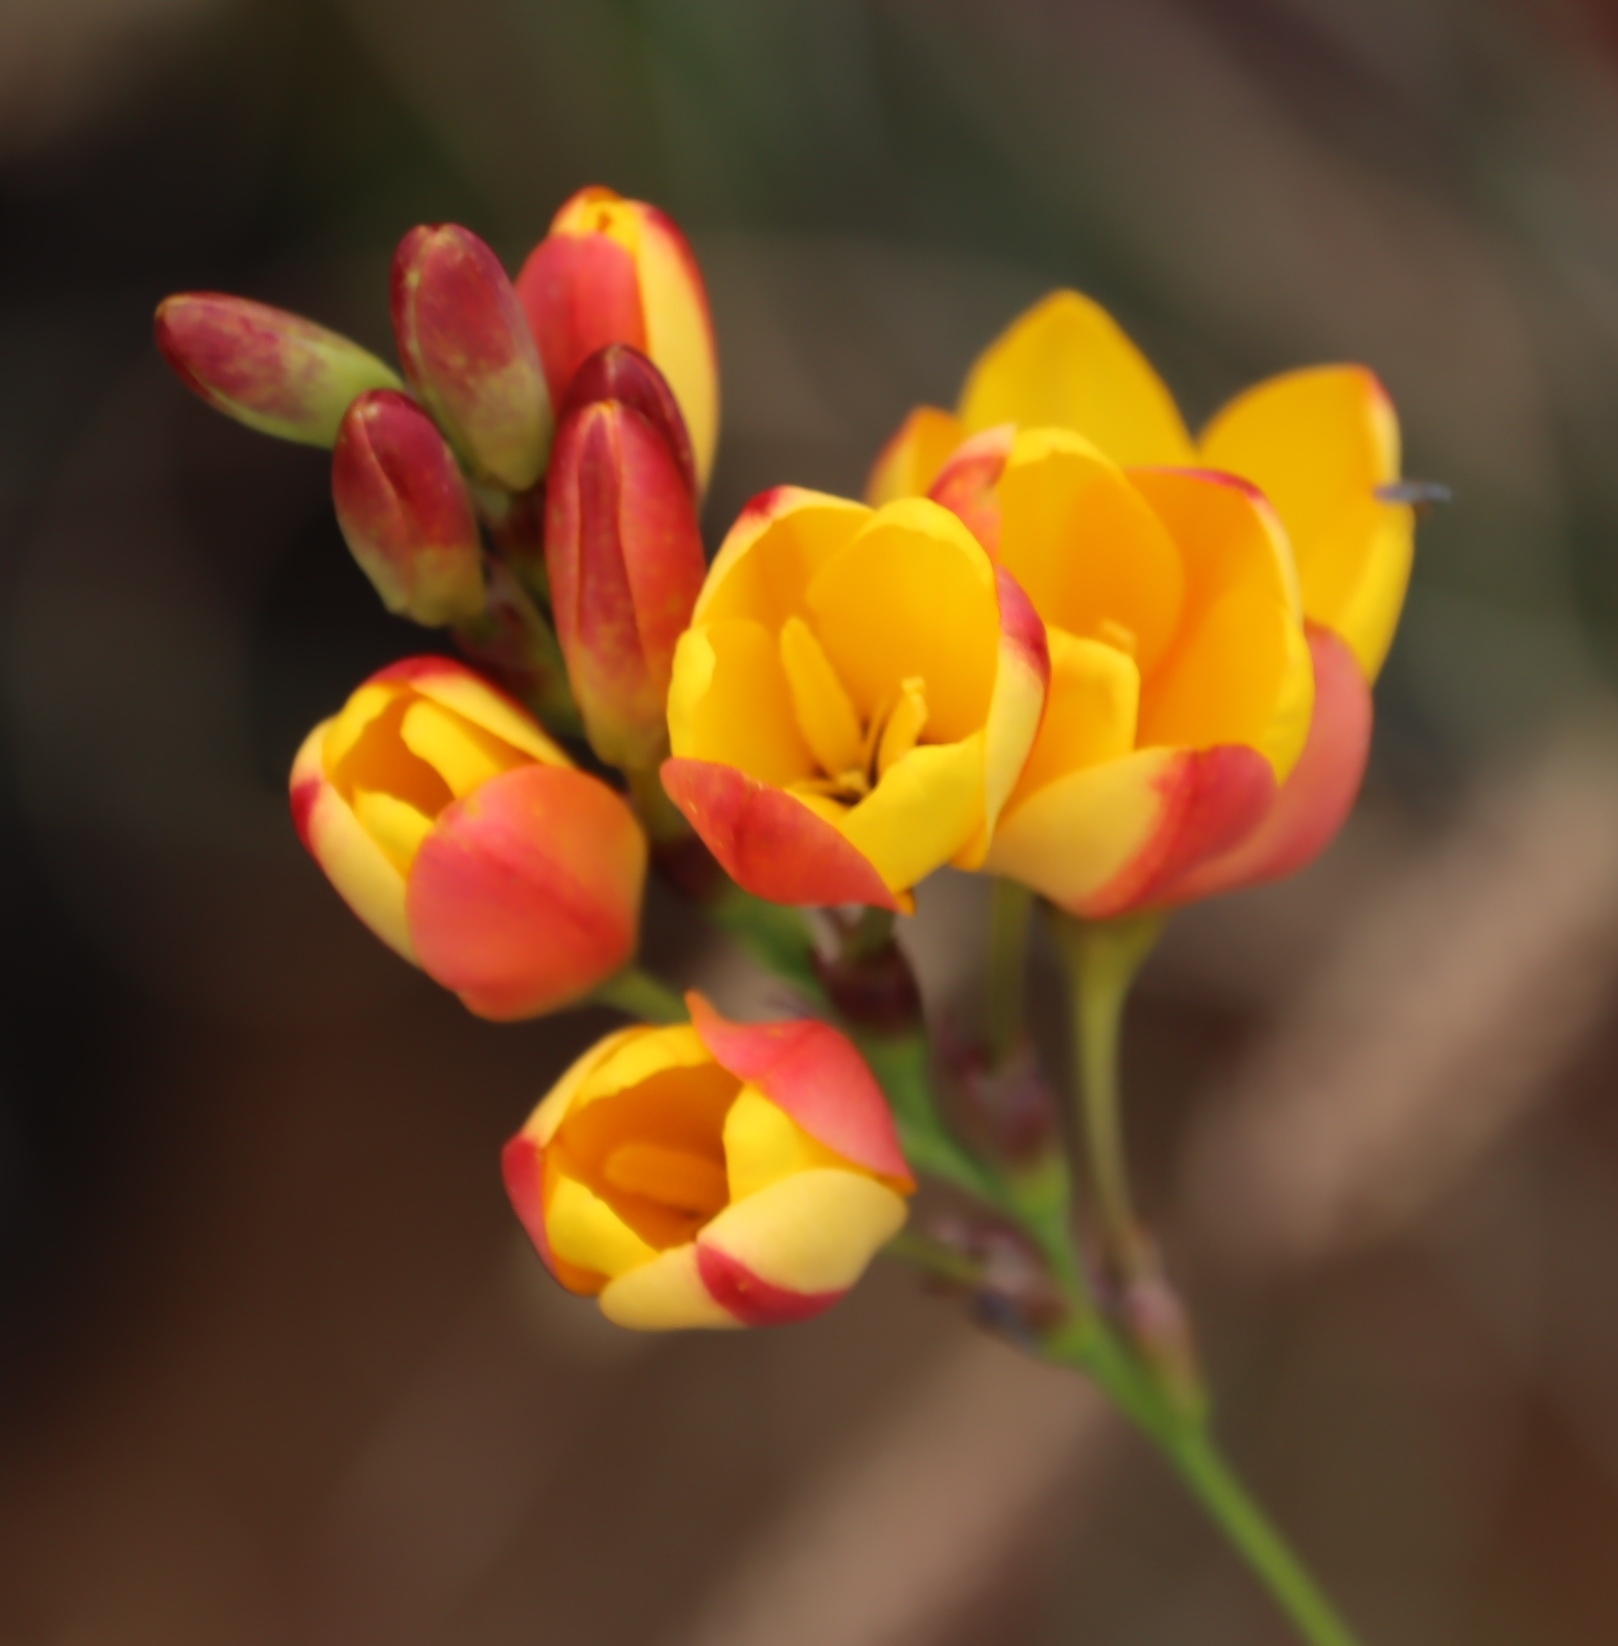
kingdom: Plantae
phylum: Tracheophyta
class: Liliopsida
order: Asparagales
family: Iridaceae
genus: Ixia
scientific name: Ixia dubia
